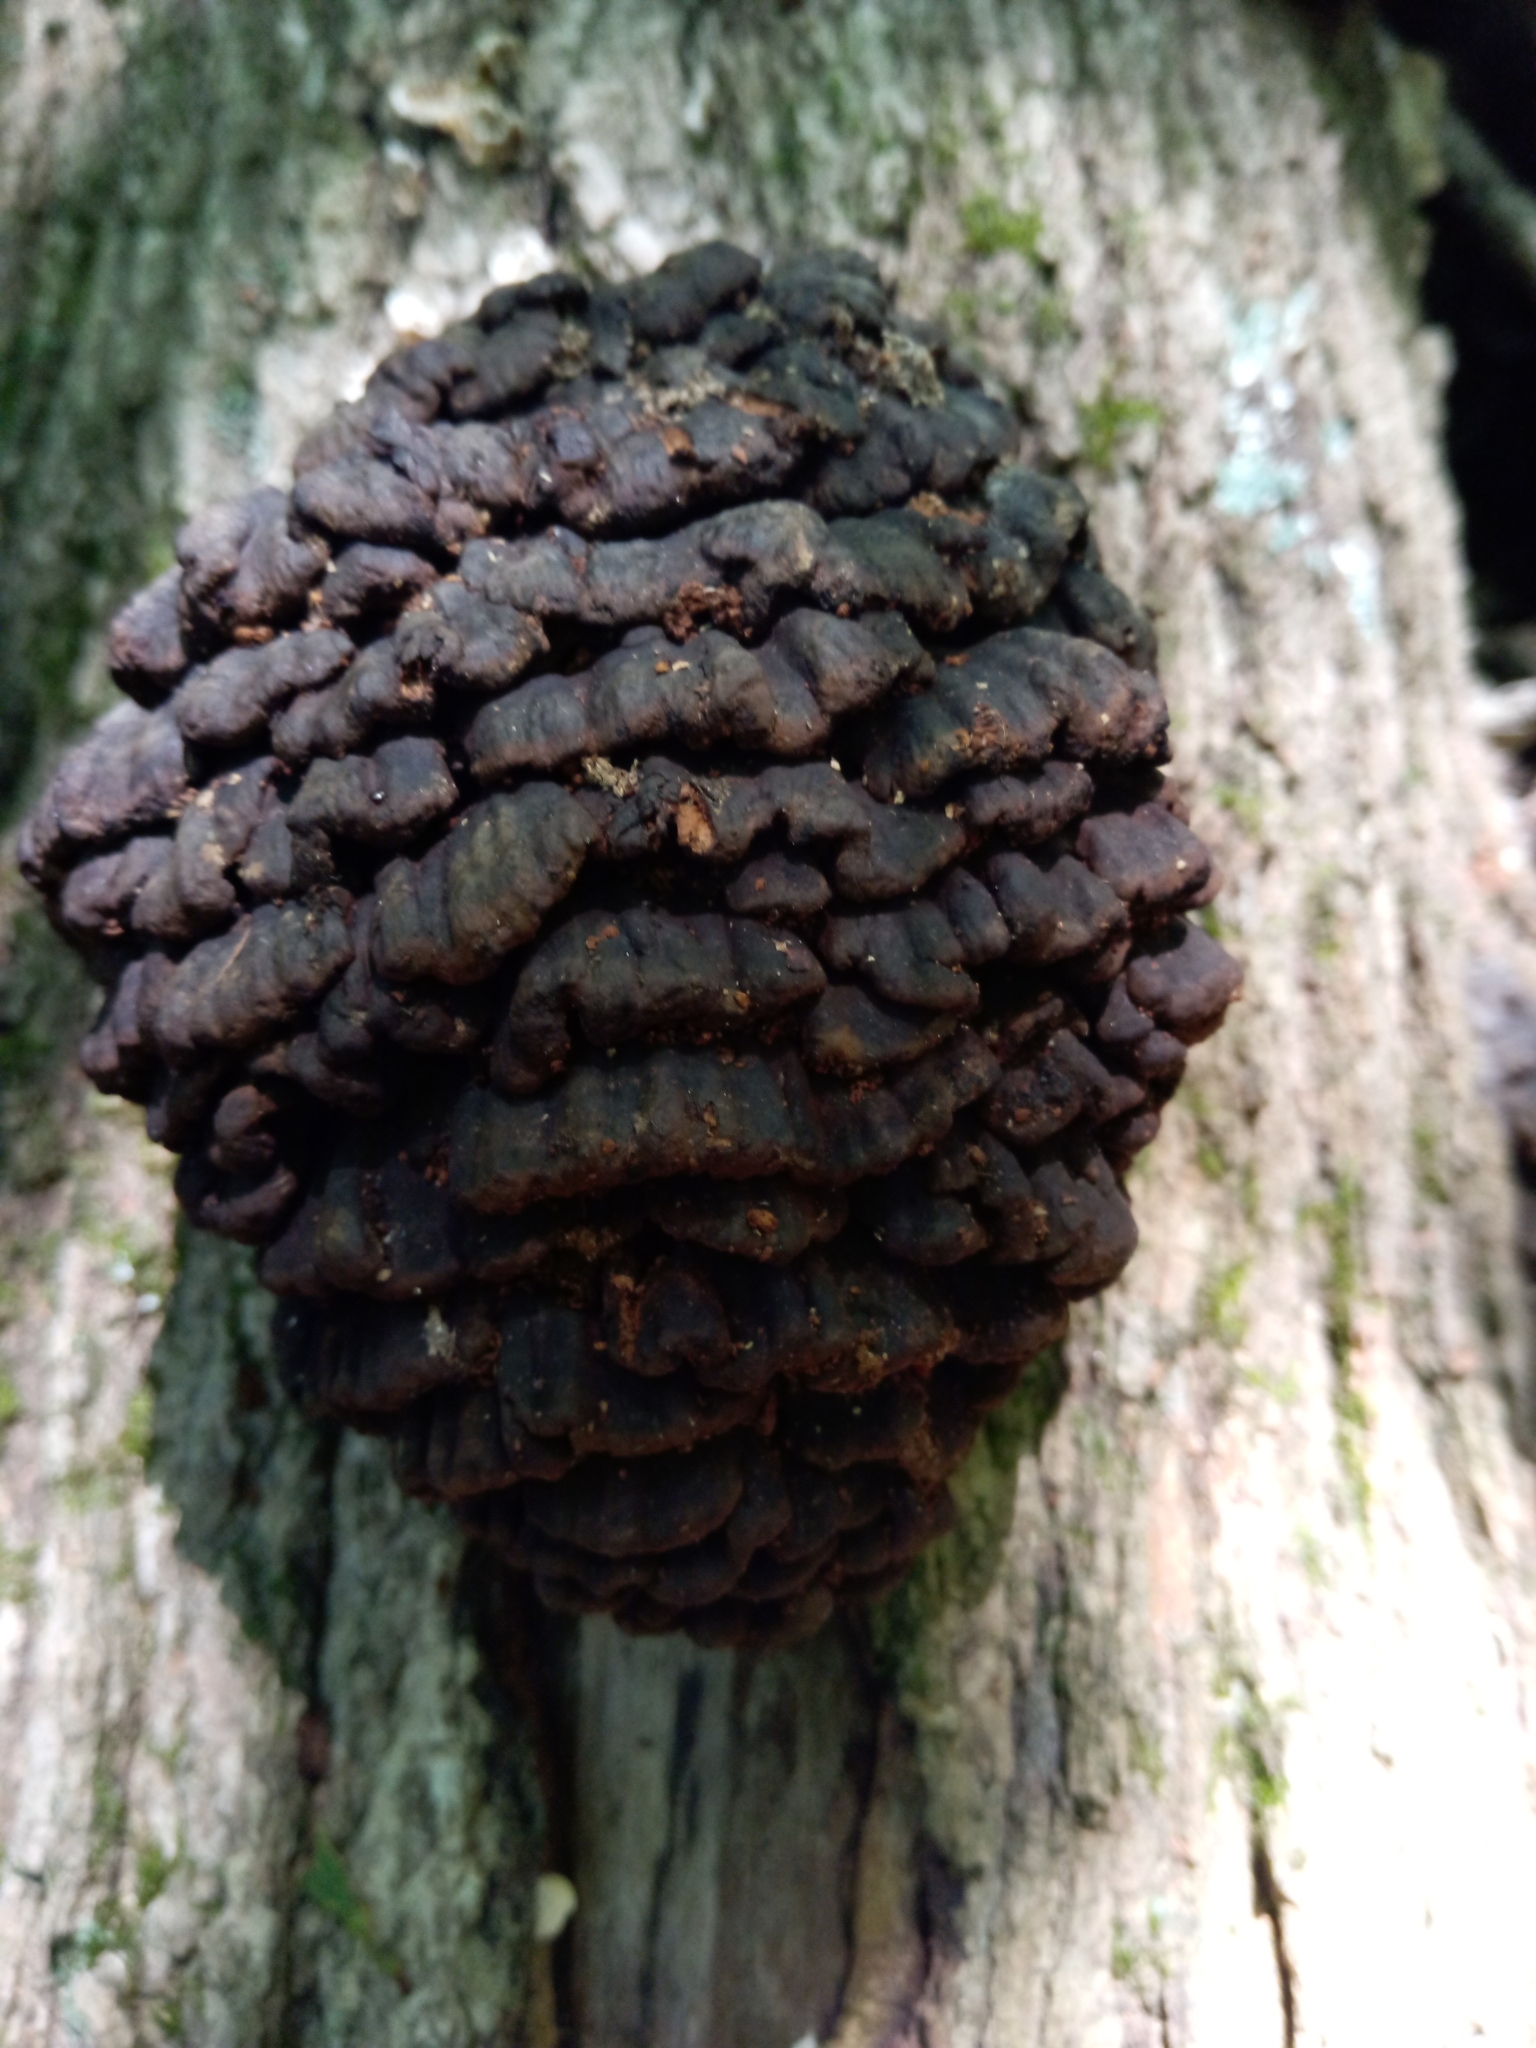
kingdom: Fungi
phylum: Basidiomycota
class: Agaricomycetes
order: Polyporales
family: Polyporaceae
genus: Globifomes
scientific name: Globifomes graveolens
